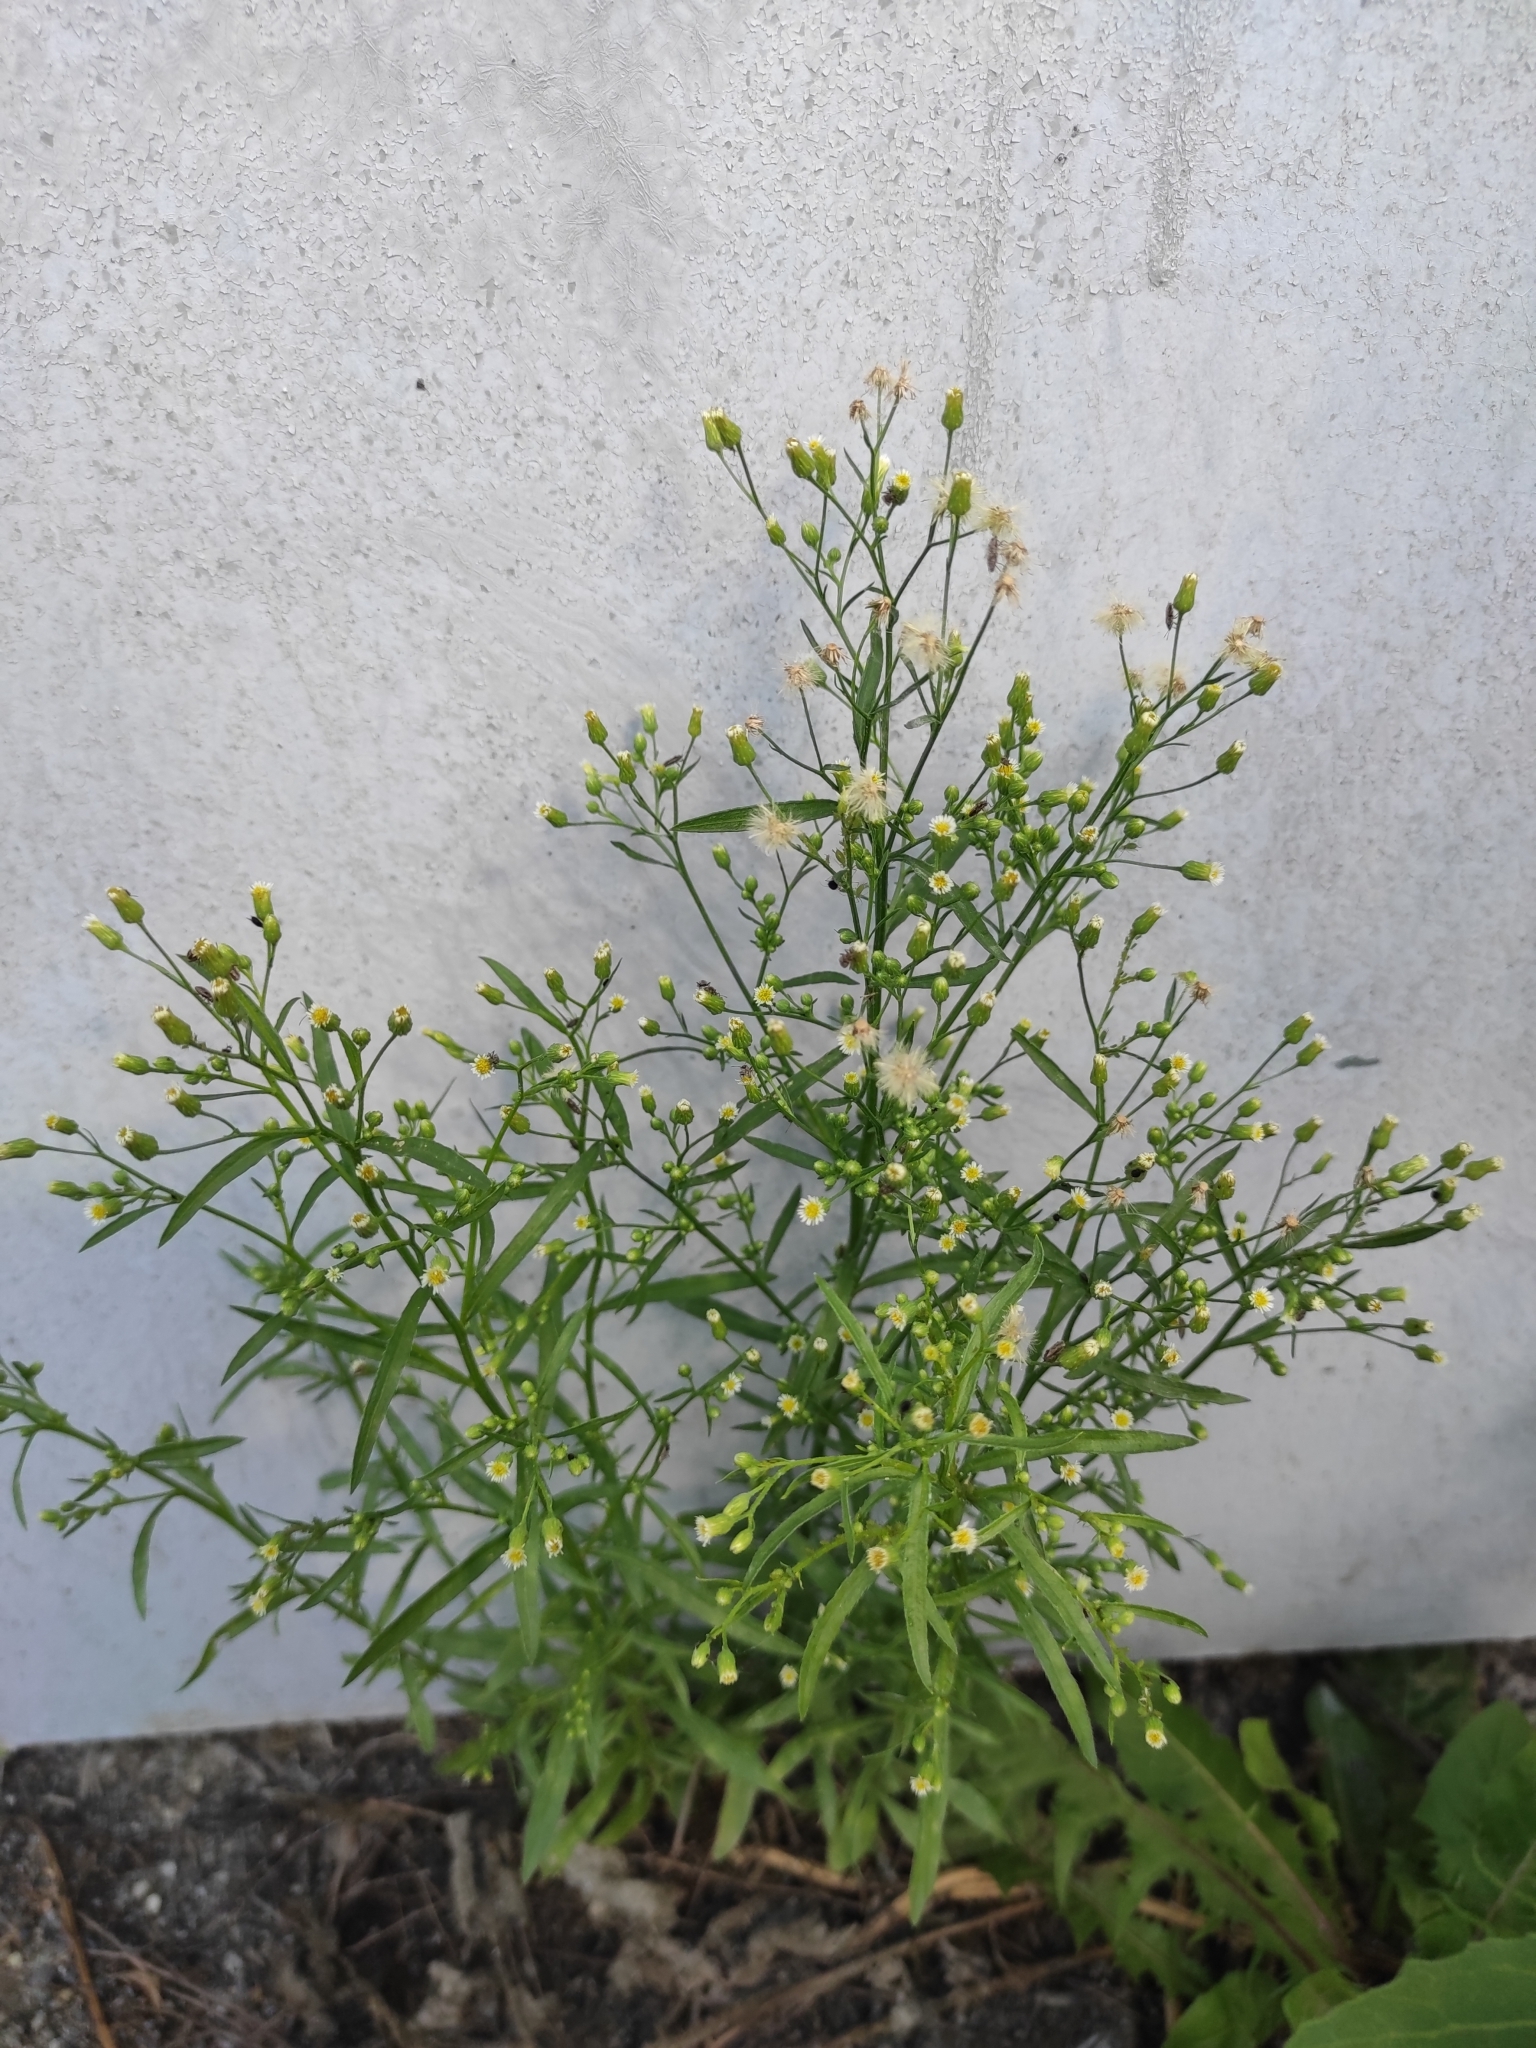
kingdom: Plantae
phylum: Tracheophyta
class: Magnoliopsida
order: Asterales
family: Asteraceae
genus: Erigeron
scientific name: Erigeron canadensis
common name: Canadian fleabane
